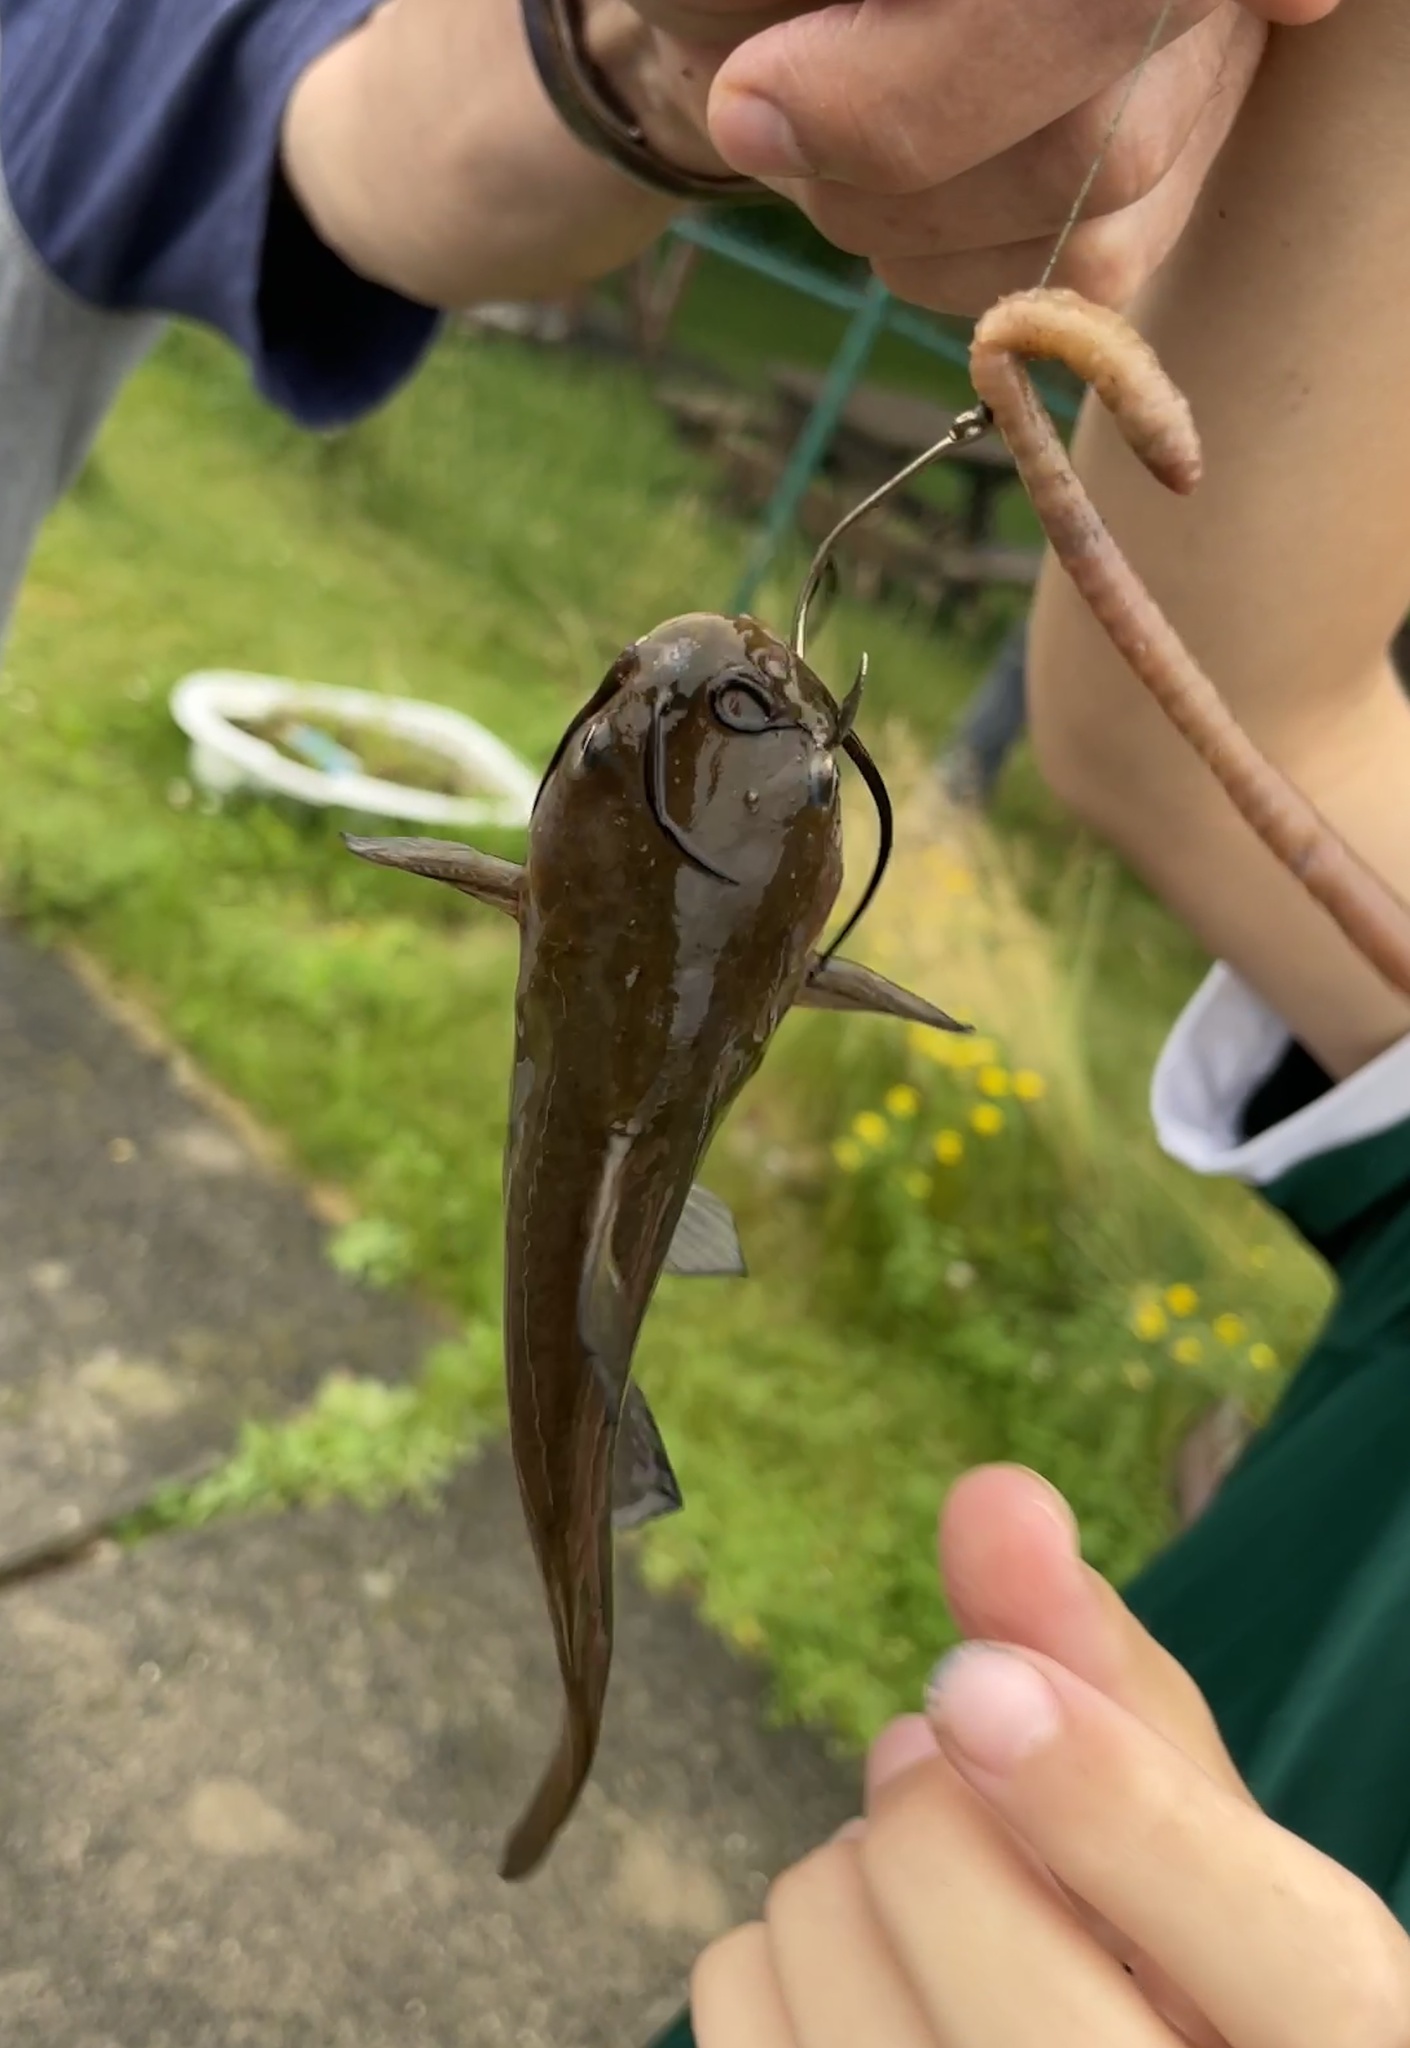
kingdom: Animalia
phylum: Chordata
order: Siluriformes
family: Ictaluridae
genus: Ameiurus
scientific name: Ameiurus nebulosus
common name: Brown bullhead
